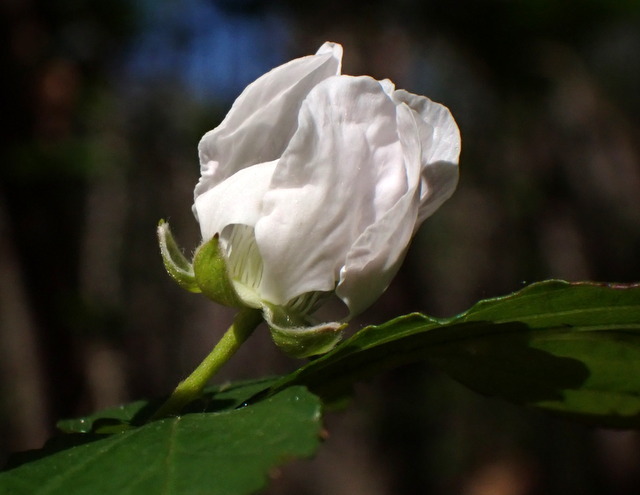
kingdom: Plantae
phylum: Tracheophyta
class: Magnoliopsida
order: Rosales
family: Rosaceae
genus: Rubus
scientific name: Rubus pensilvanicus
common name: Pennsylvania blackberry
